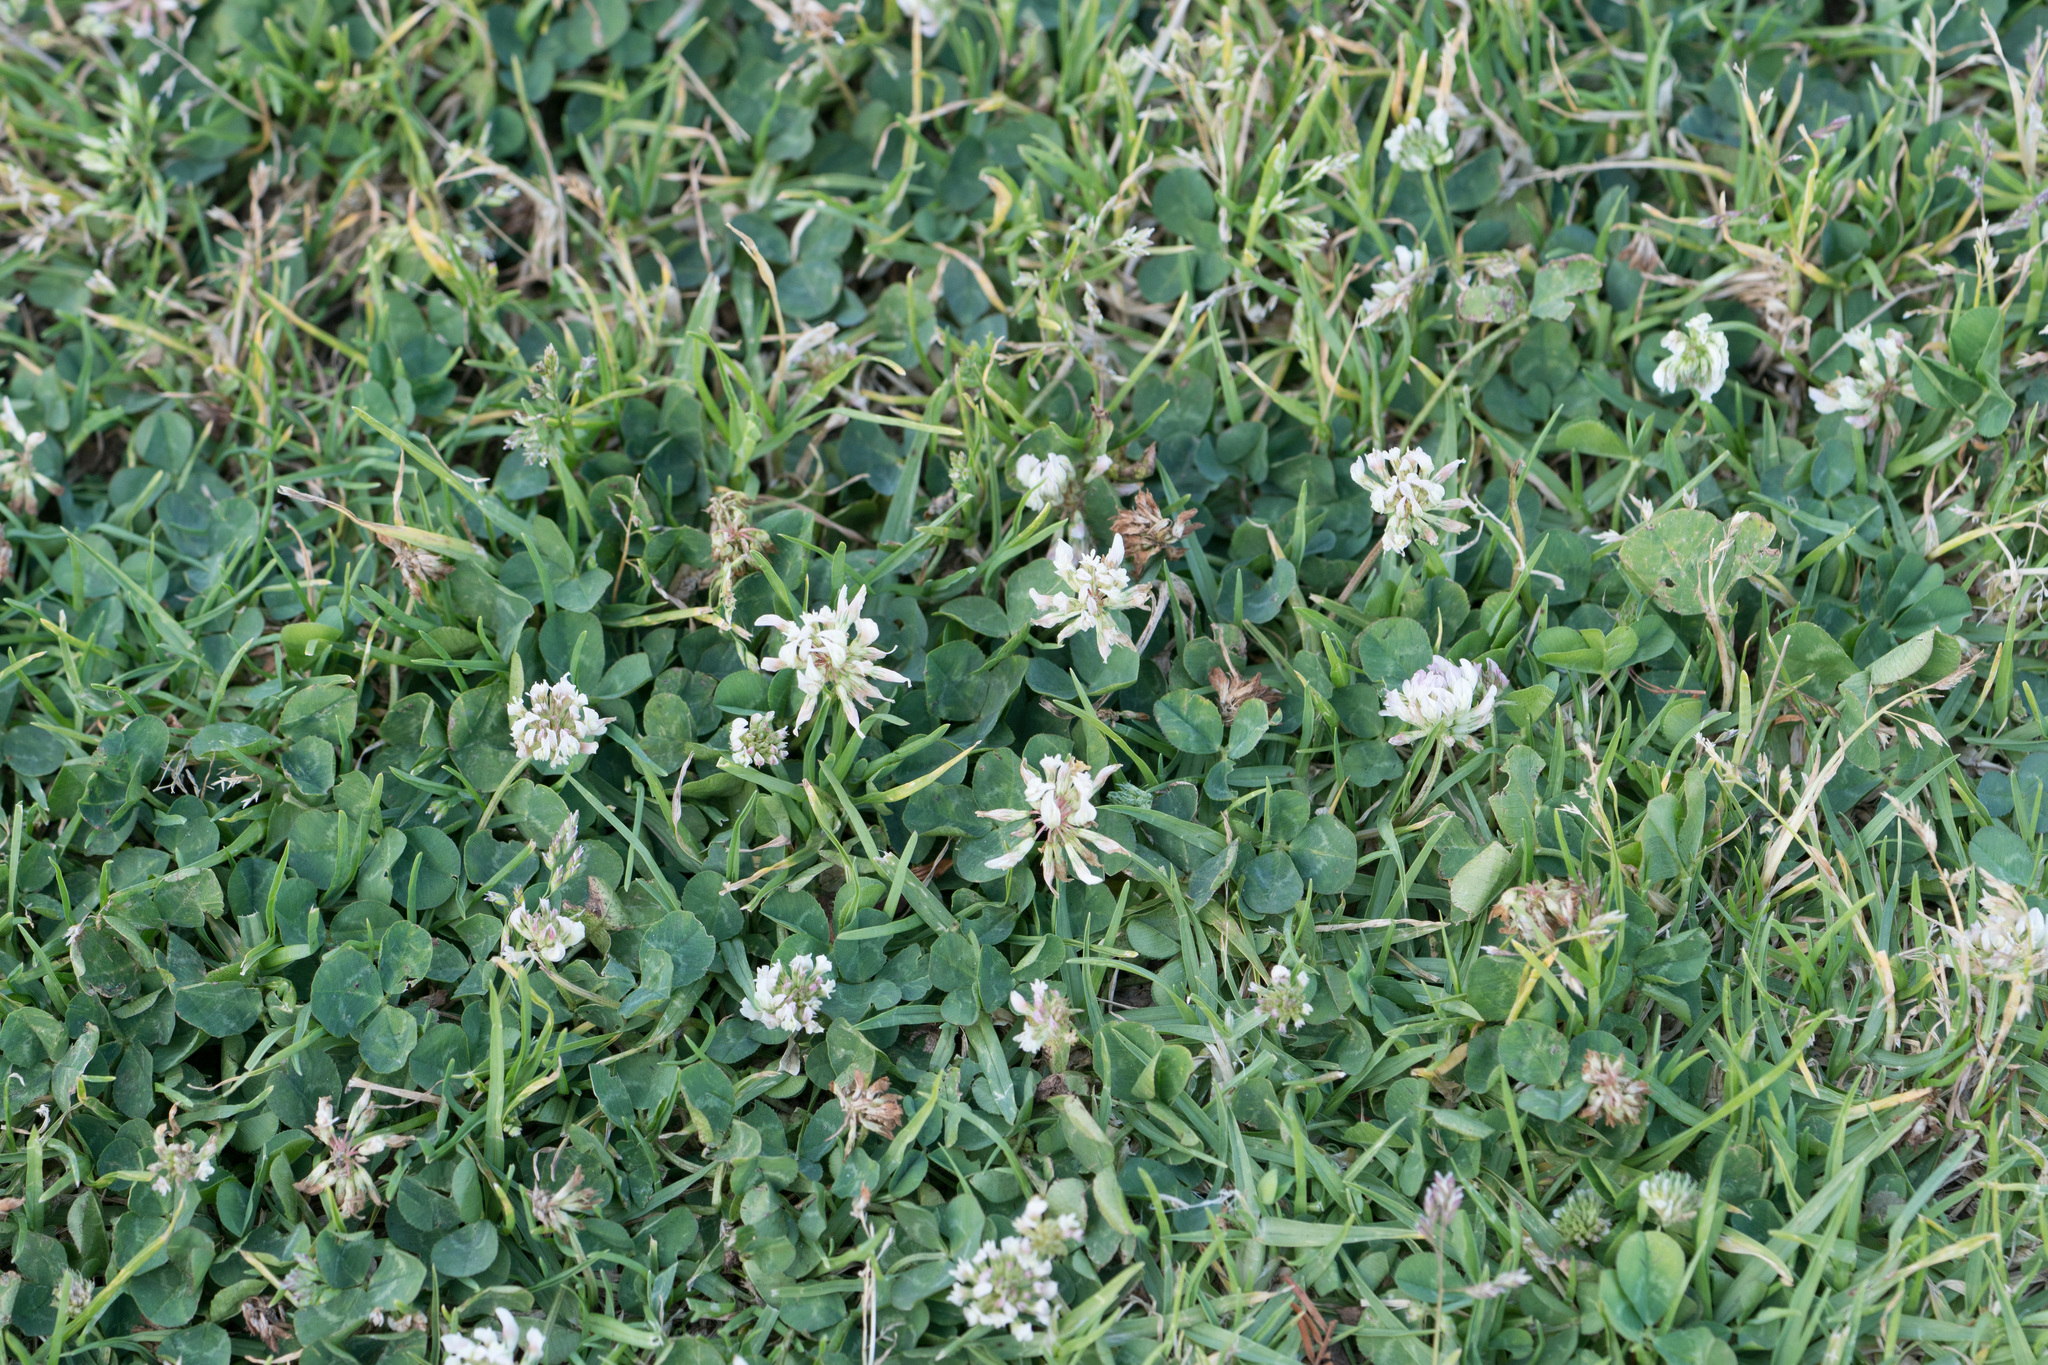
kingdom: Plantae
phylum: Tracheophyta
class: Magnoliopsida
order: Fabales
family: Fabaceae
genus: Trifolium
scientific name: Trifolium repens
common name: White clover
